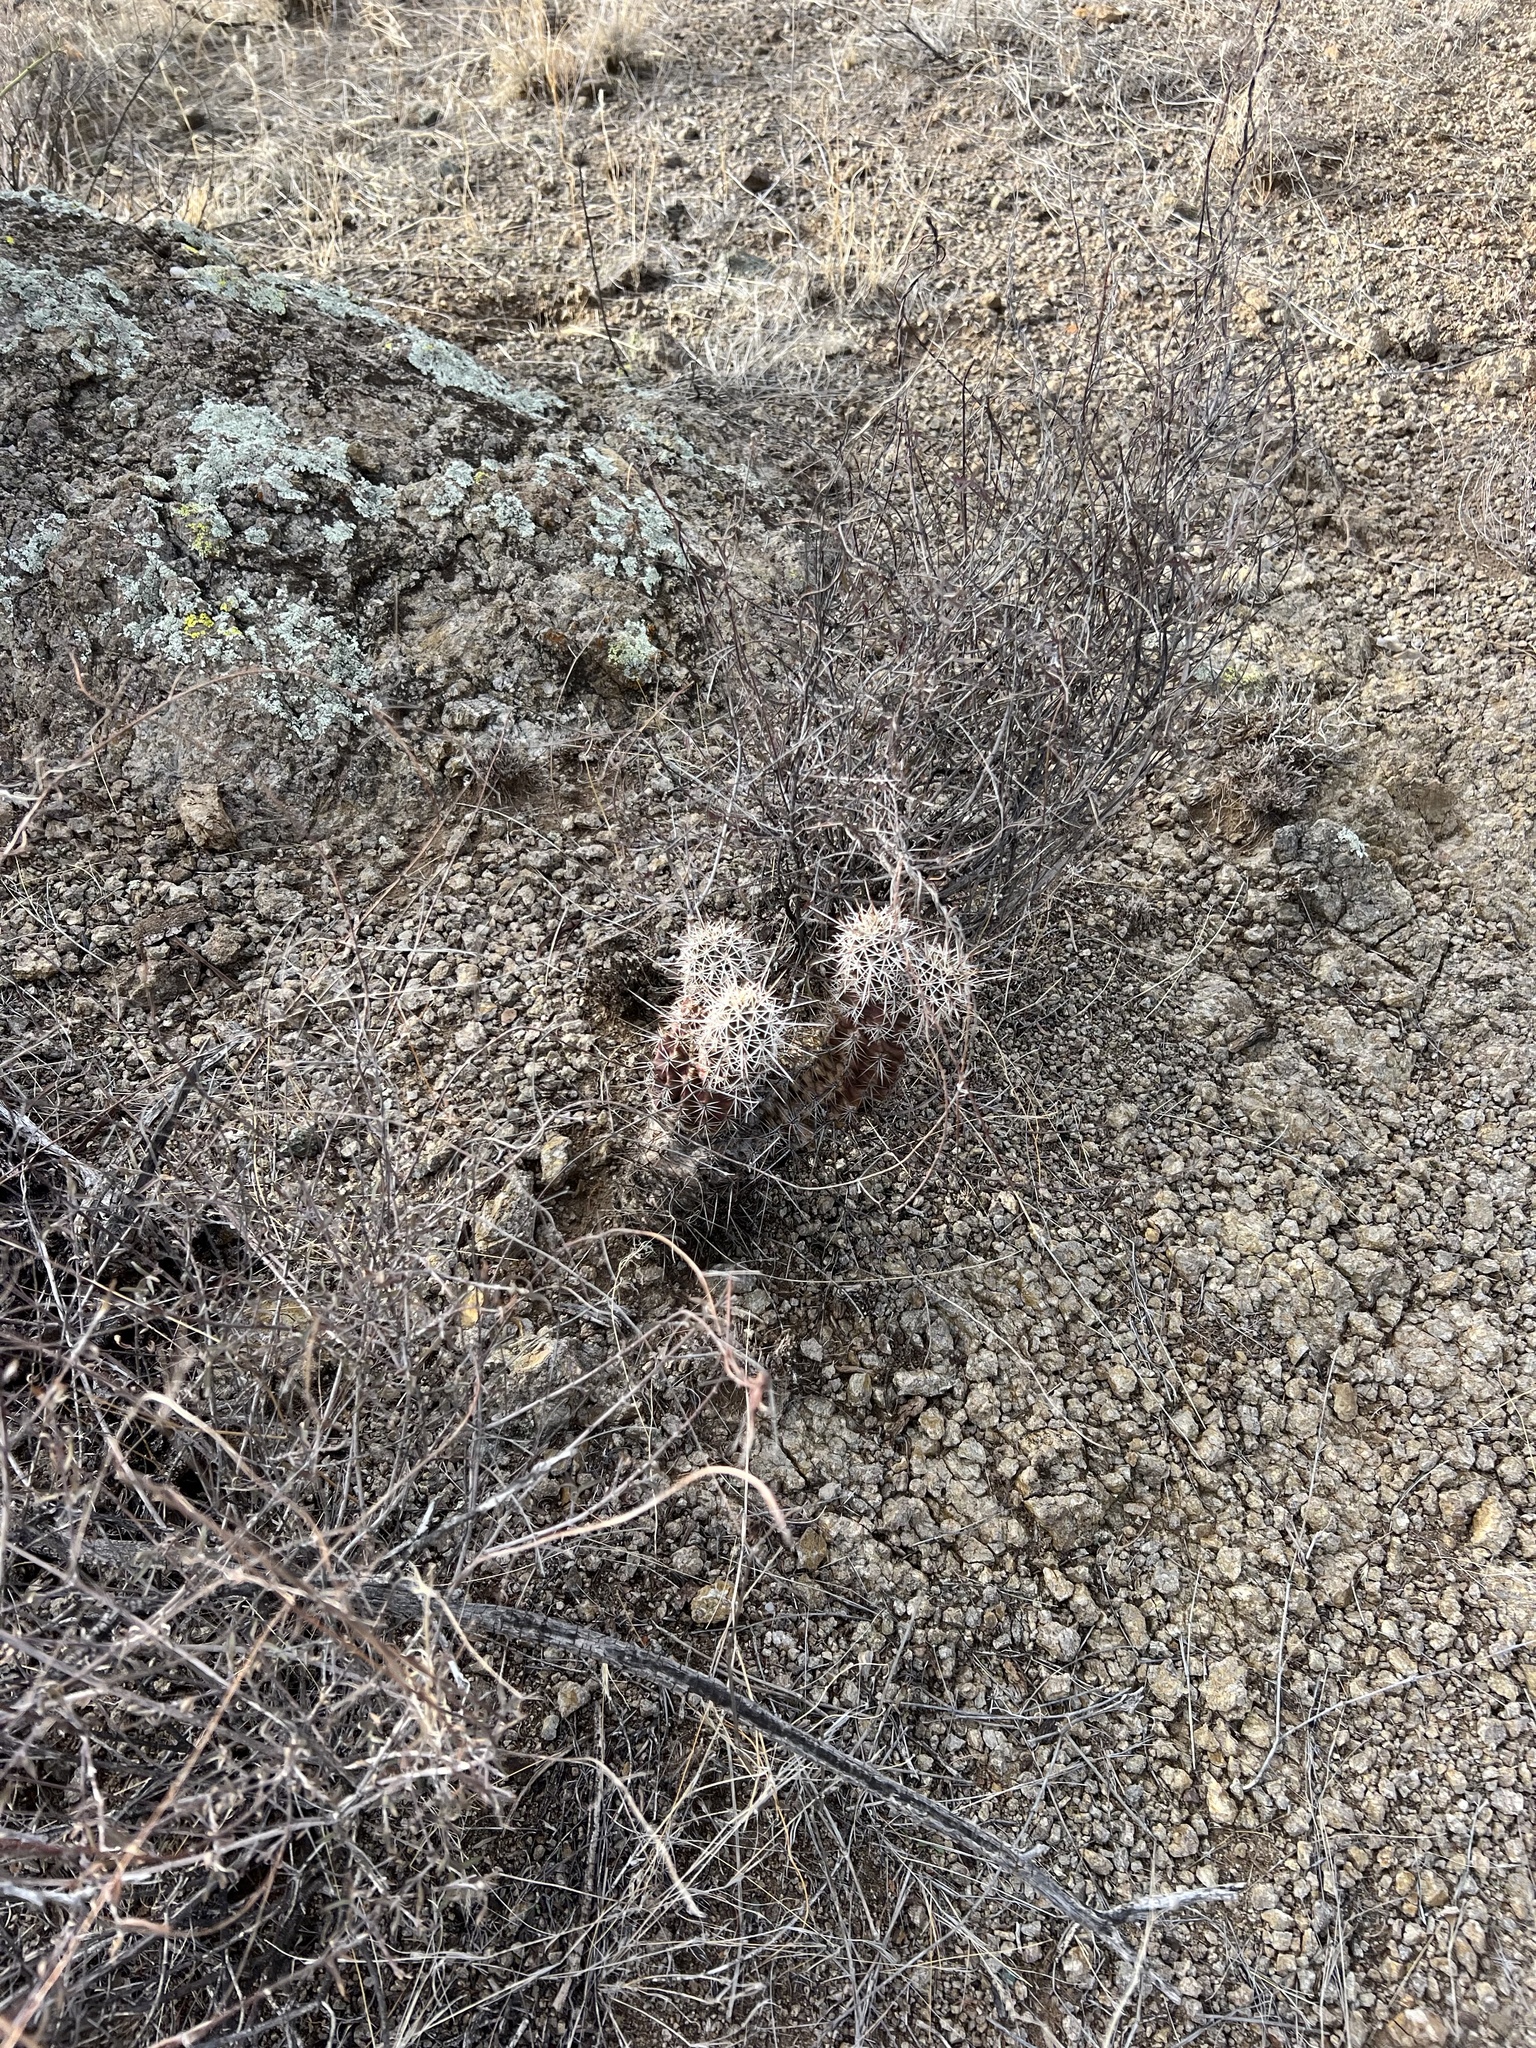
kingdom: Plantae
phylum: Tracheophyta
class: Magnoliopsida
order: Caryophyllales
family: Cactaceae
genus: Echinocereus
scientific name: Echinocereus fasciculatus
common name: Bundle hedgehog
